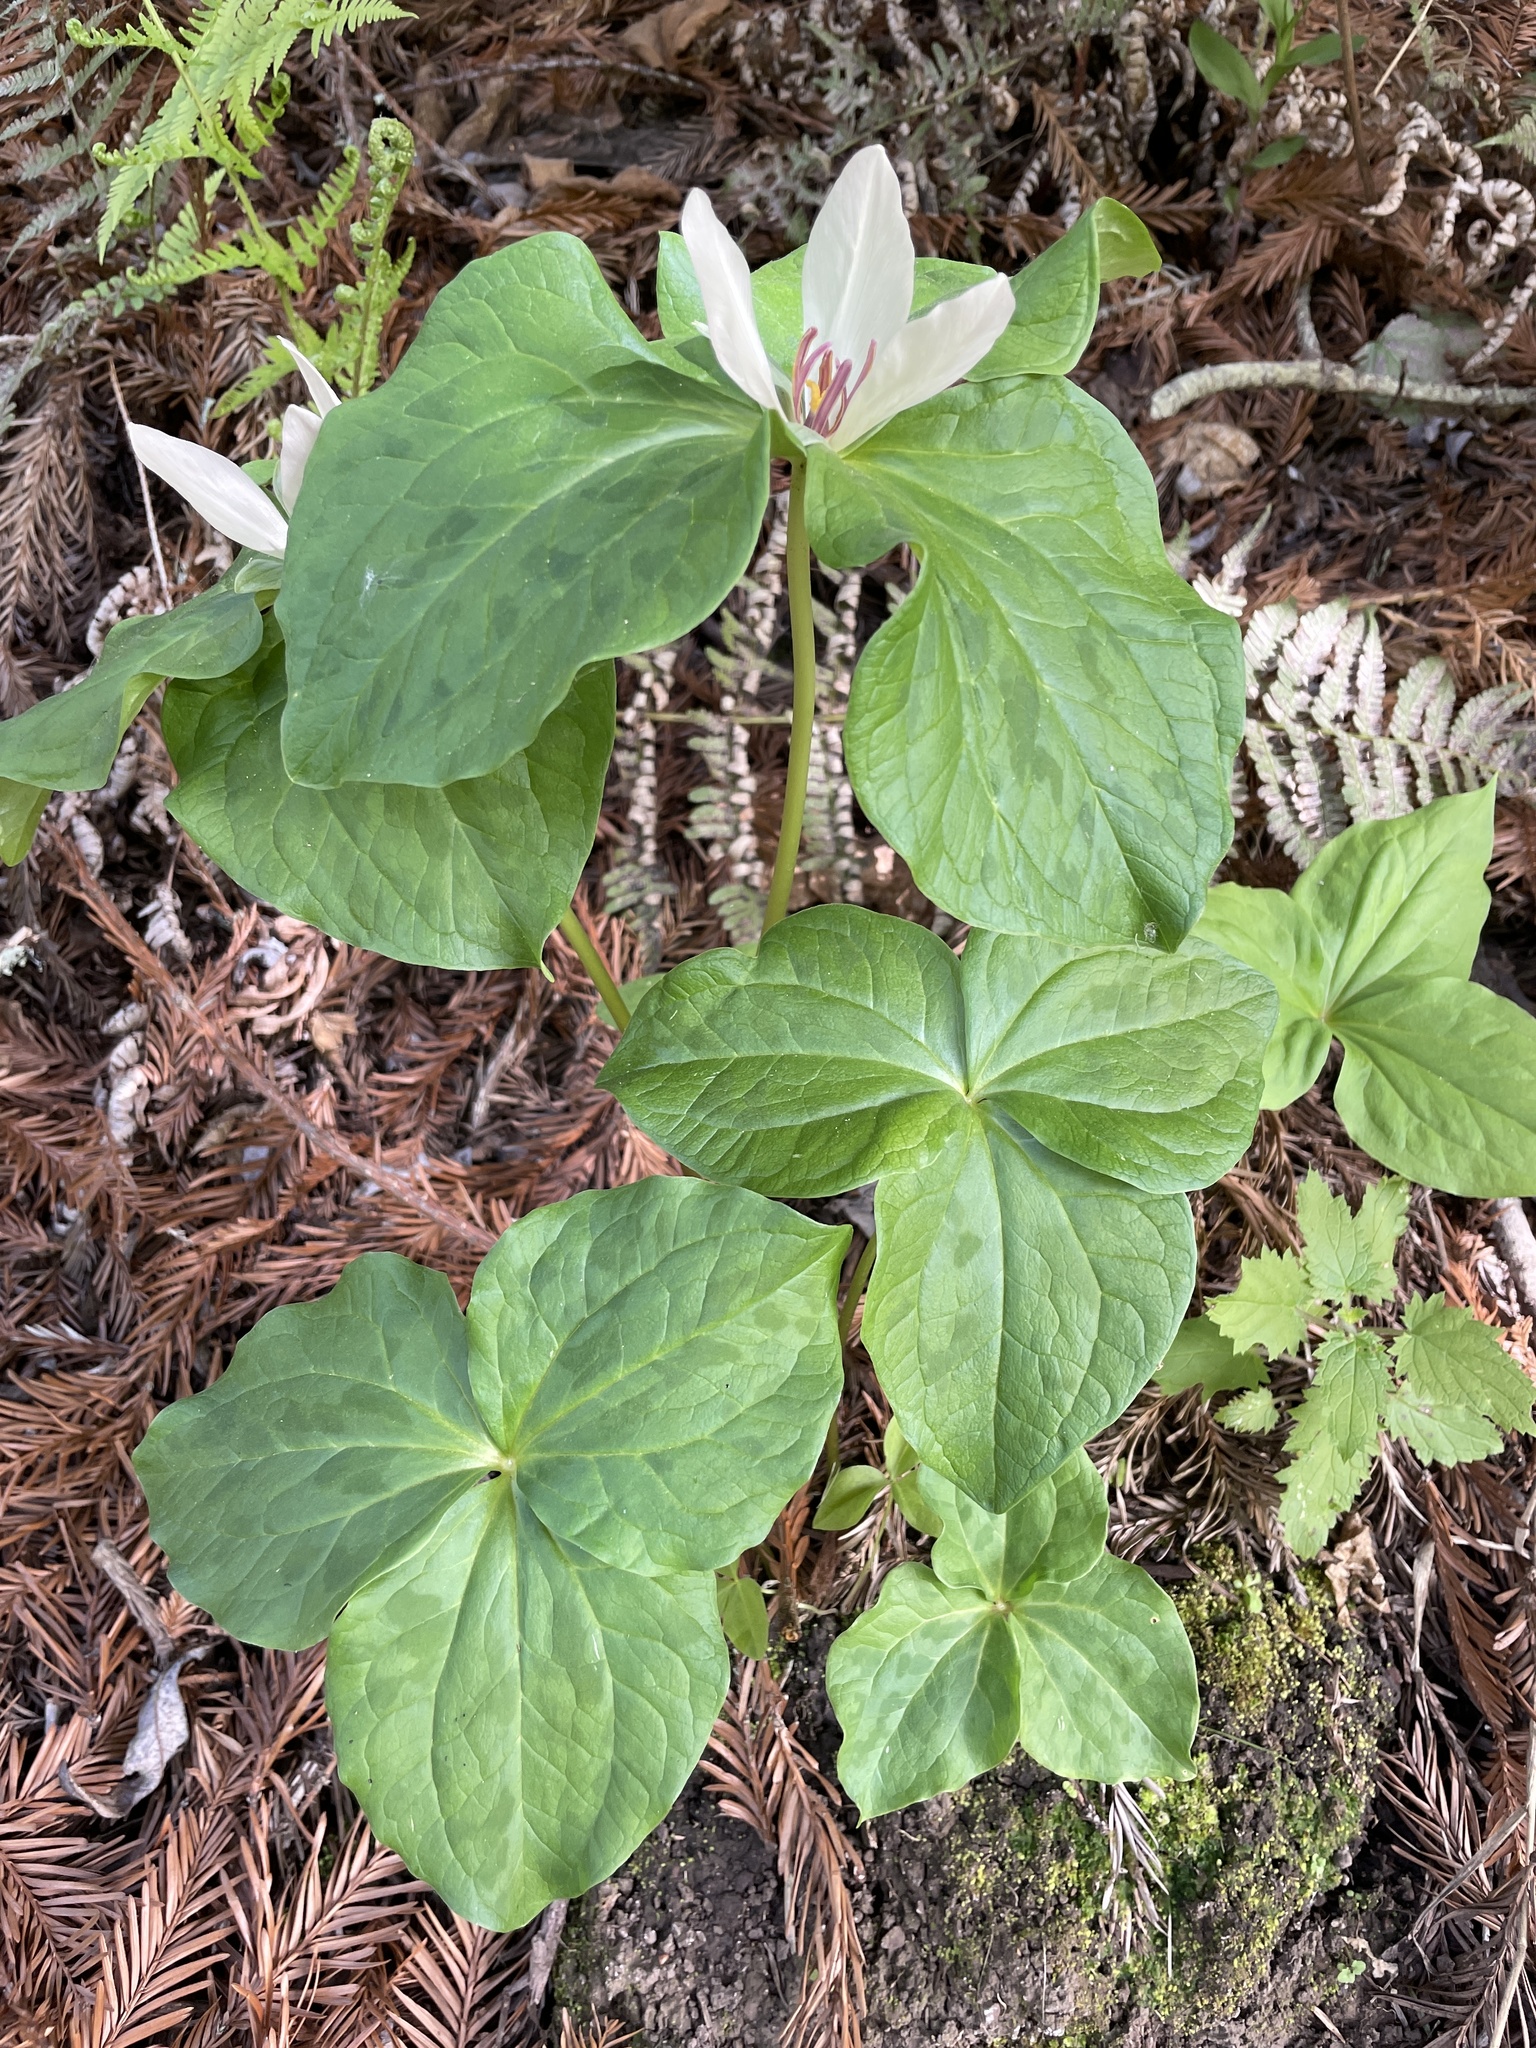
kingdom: Plantae
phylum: Tracheophyta
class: Liliopsida
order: Liliales
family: Melanthiaceae
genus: Trillium
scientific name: Trillium chloropetalum
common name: Giant trillium
